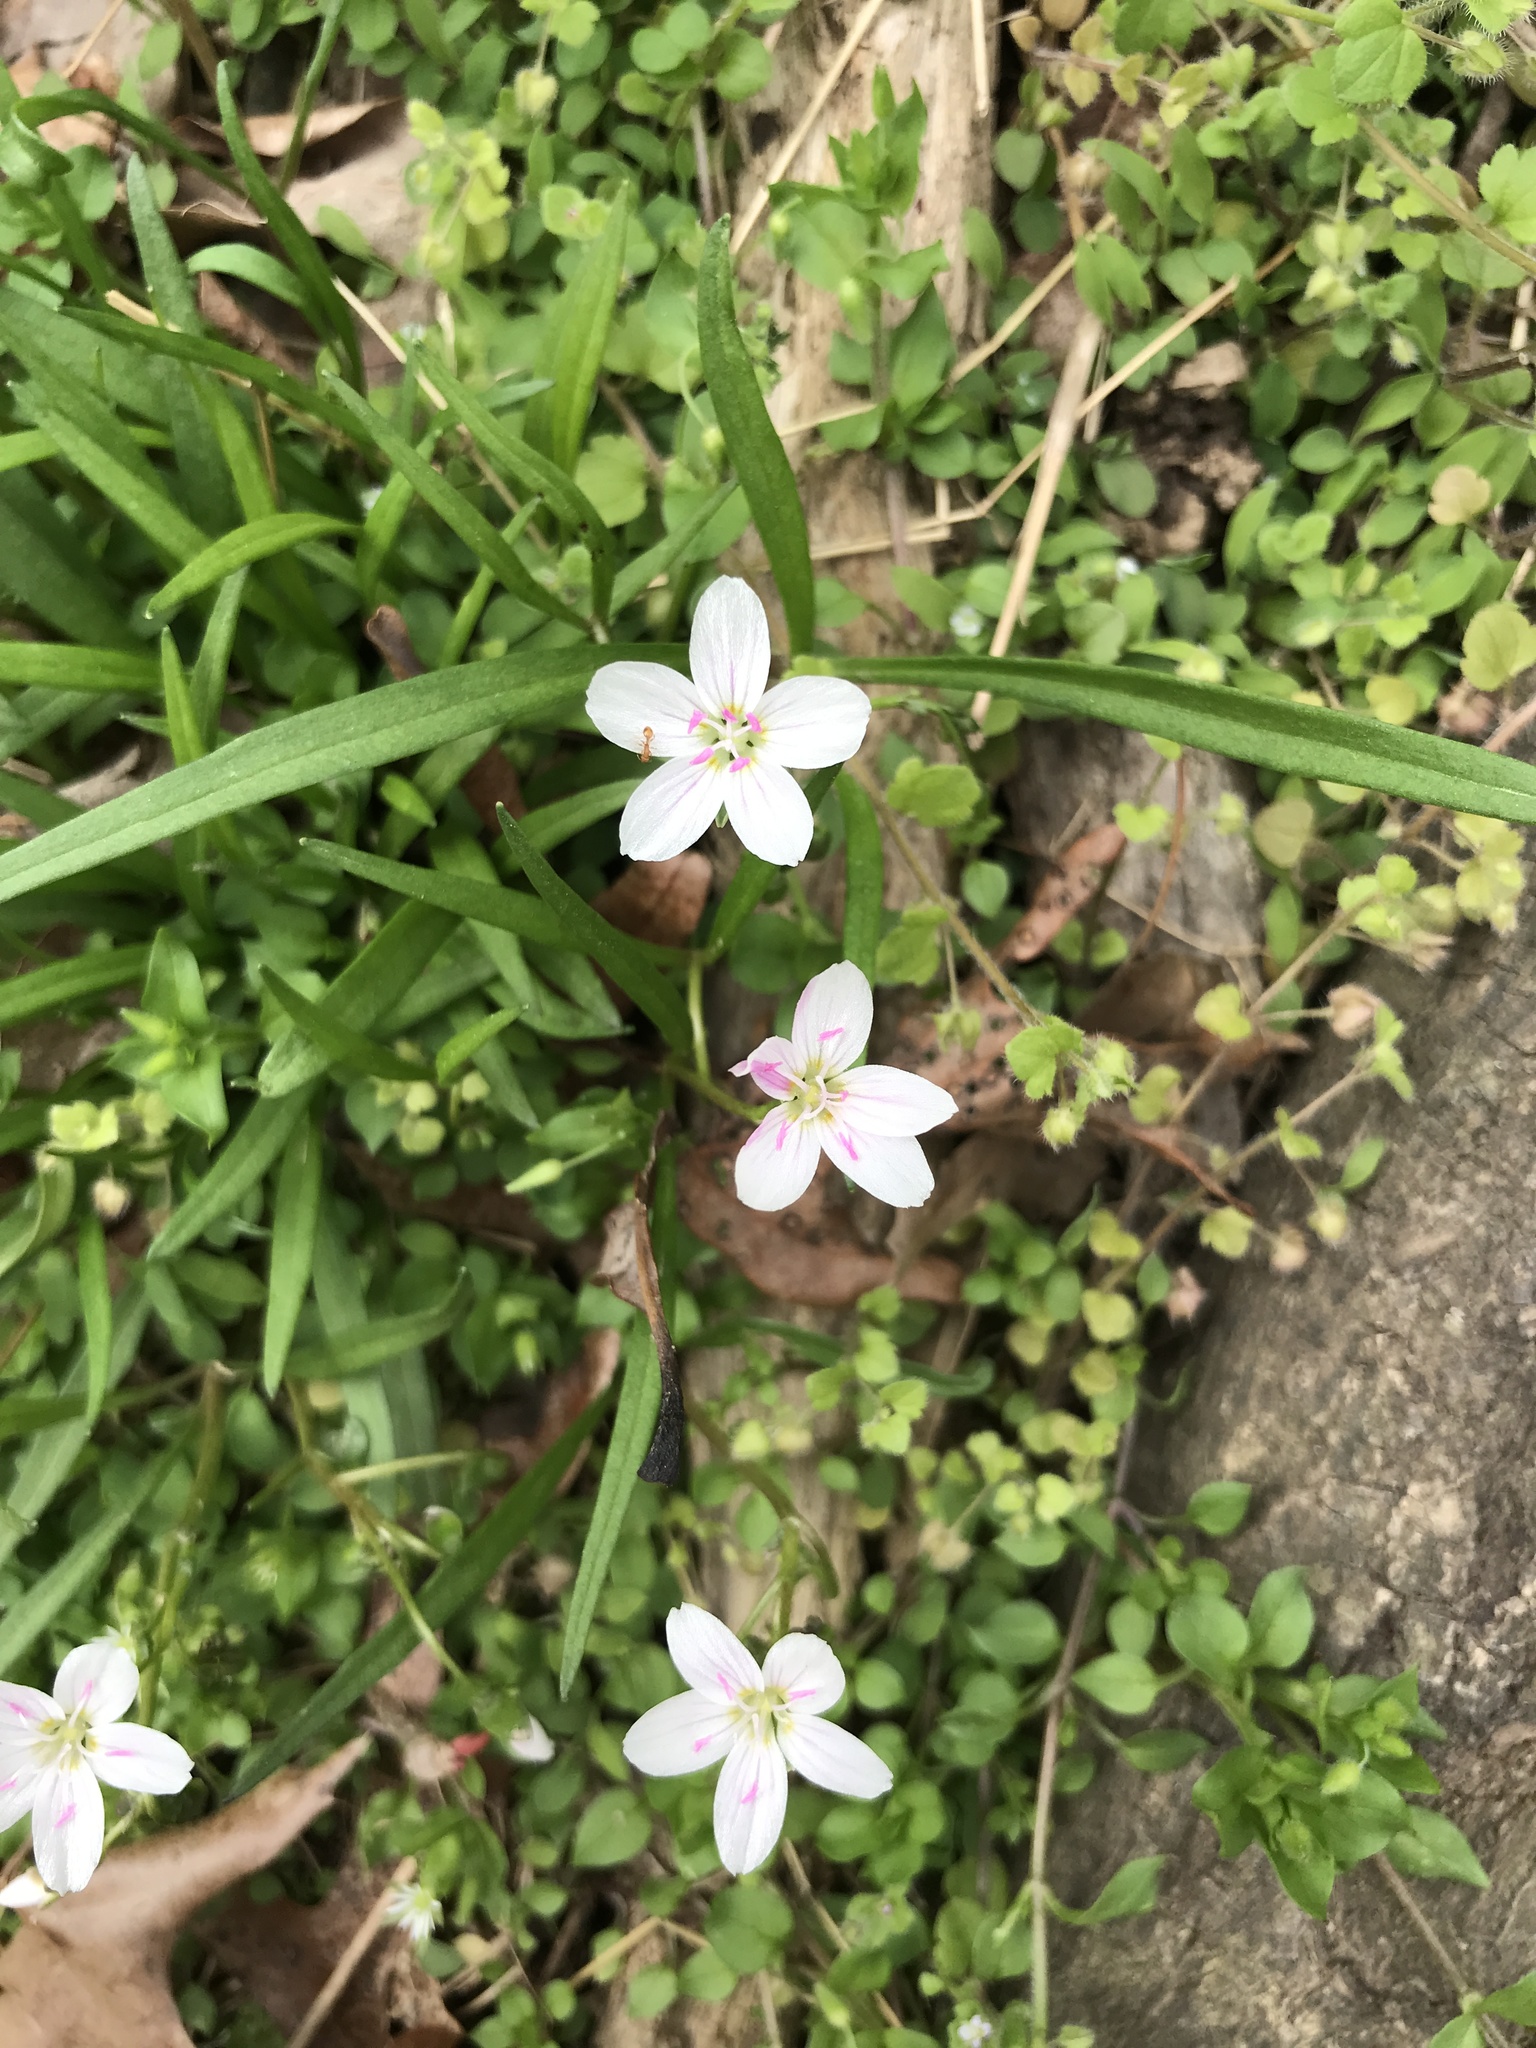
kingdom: Plantae
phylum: Tracheophyta
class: Magnoliopsida
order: Caryophyllales
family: Montiaceae
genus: Claytonia
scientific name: Claytonia virginica
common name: Virginia springbeauty
